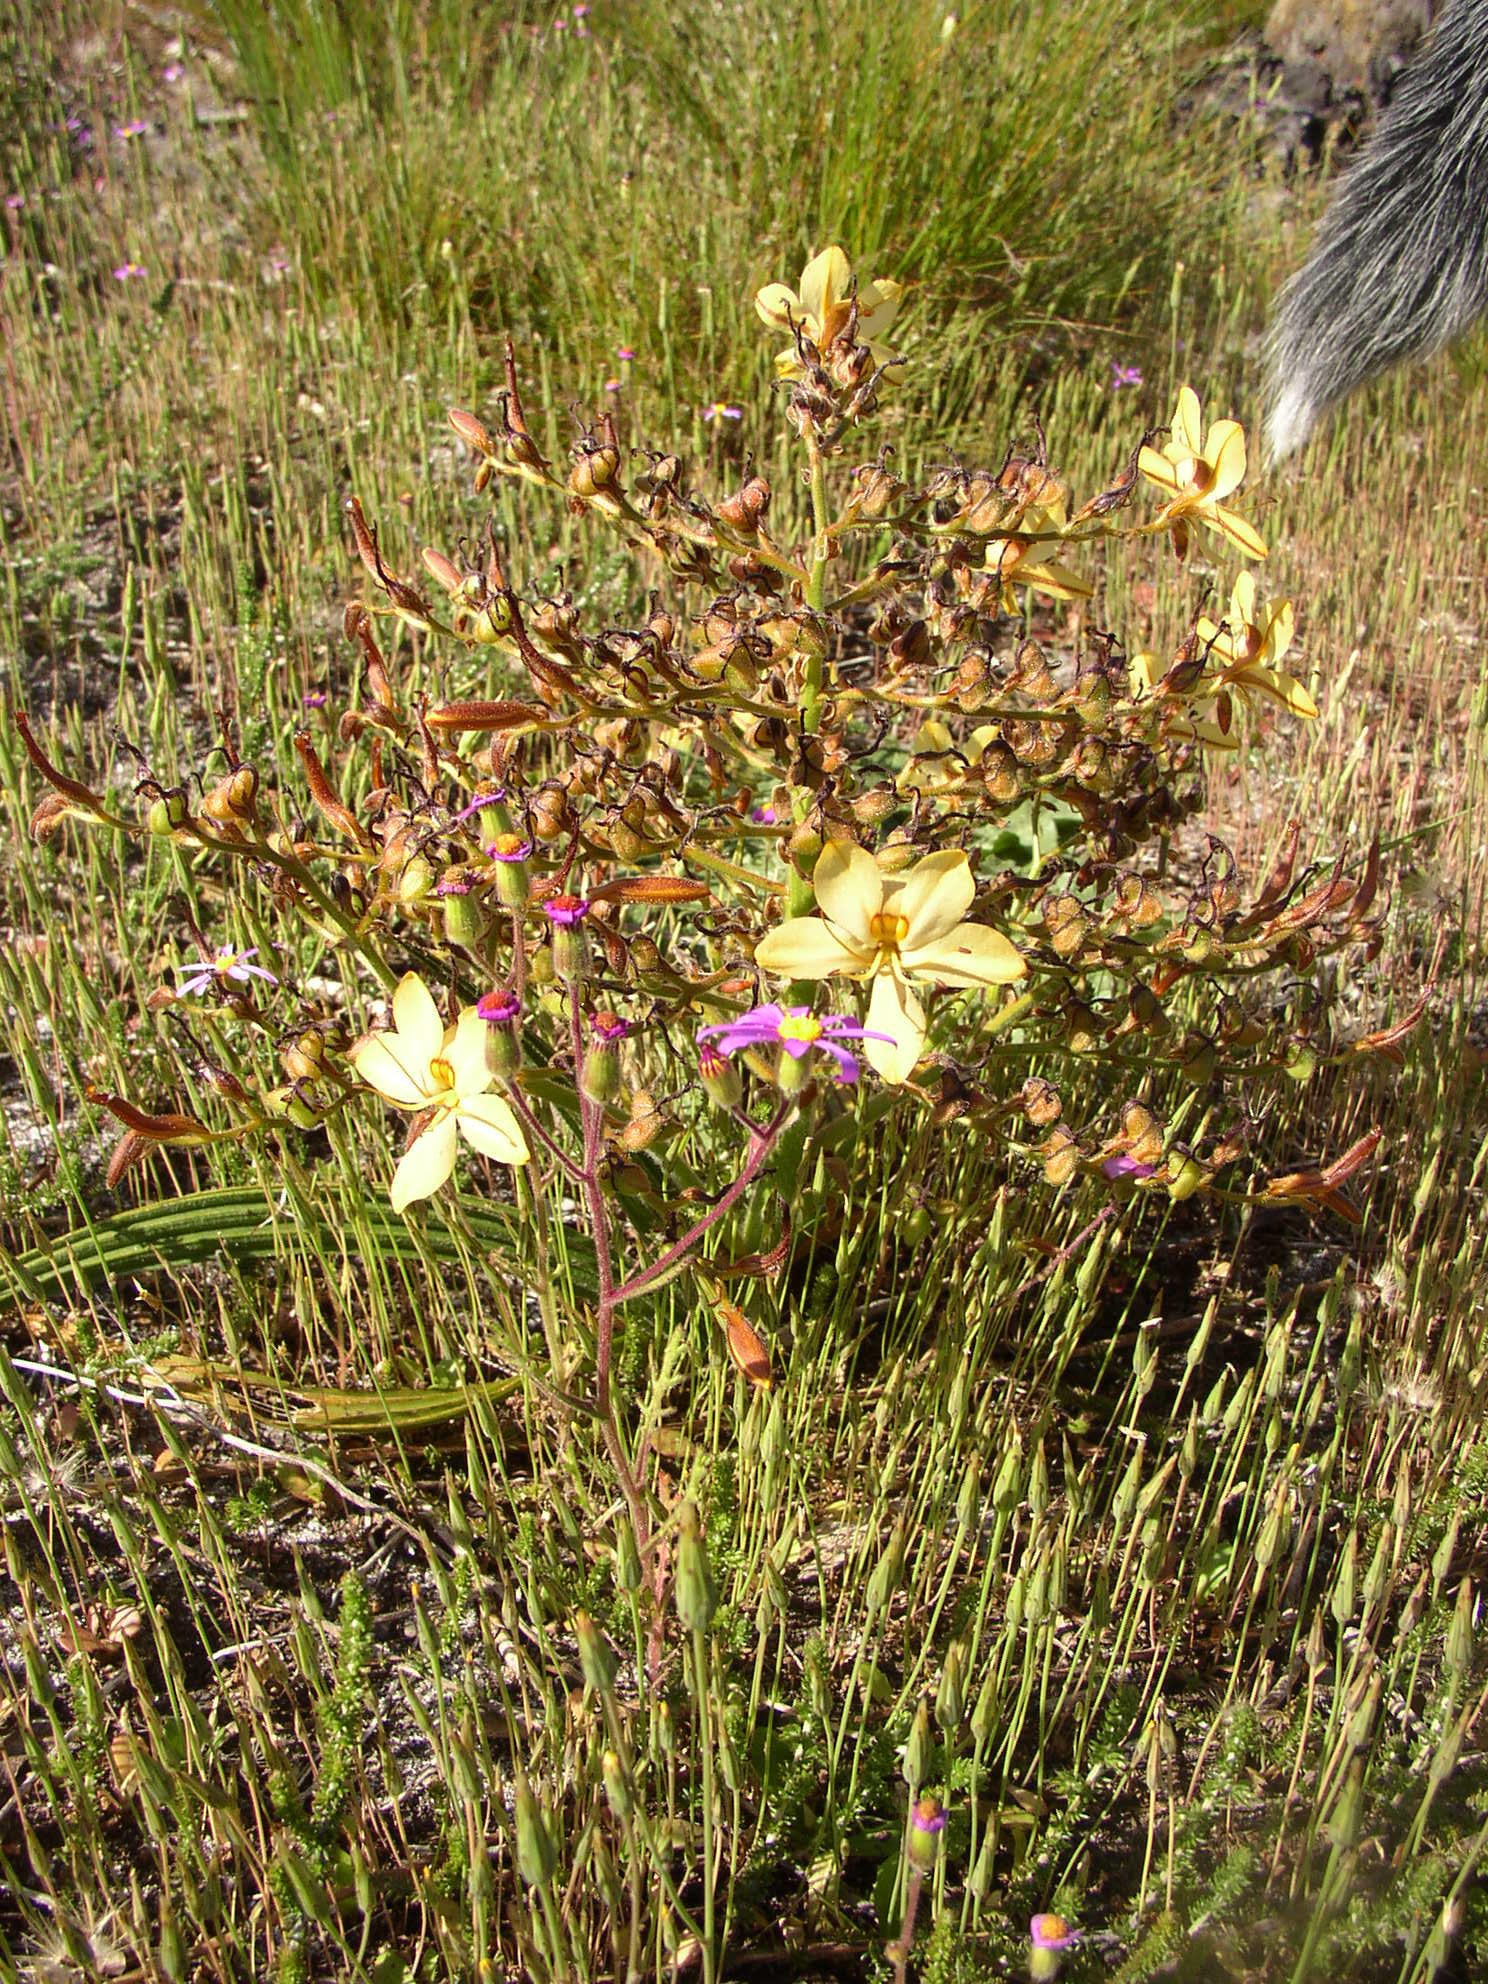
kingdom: Plantae
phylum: Tracheophyta
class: Liliopsida
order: Commelinales
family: Haemodoraceae
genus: Wachendorfia
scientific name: Wachendorfia paniculata
